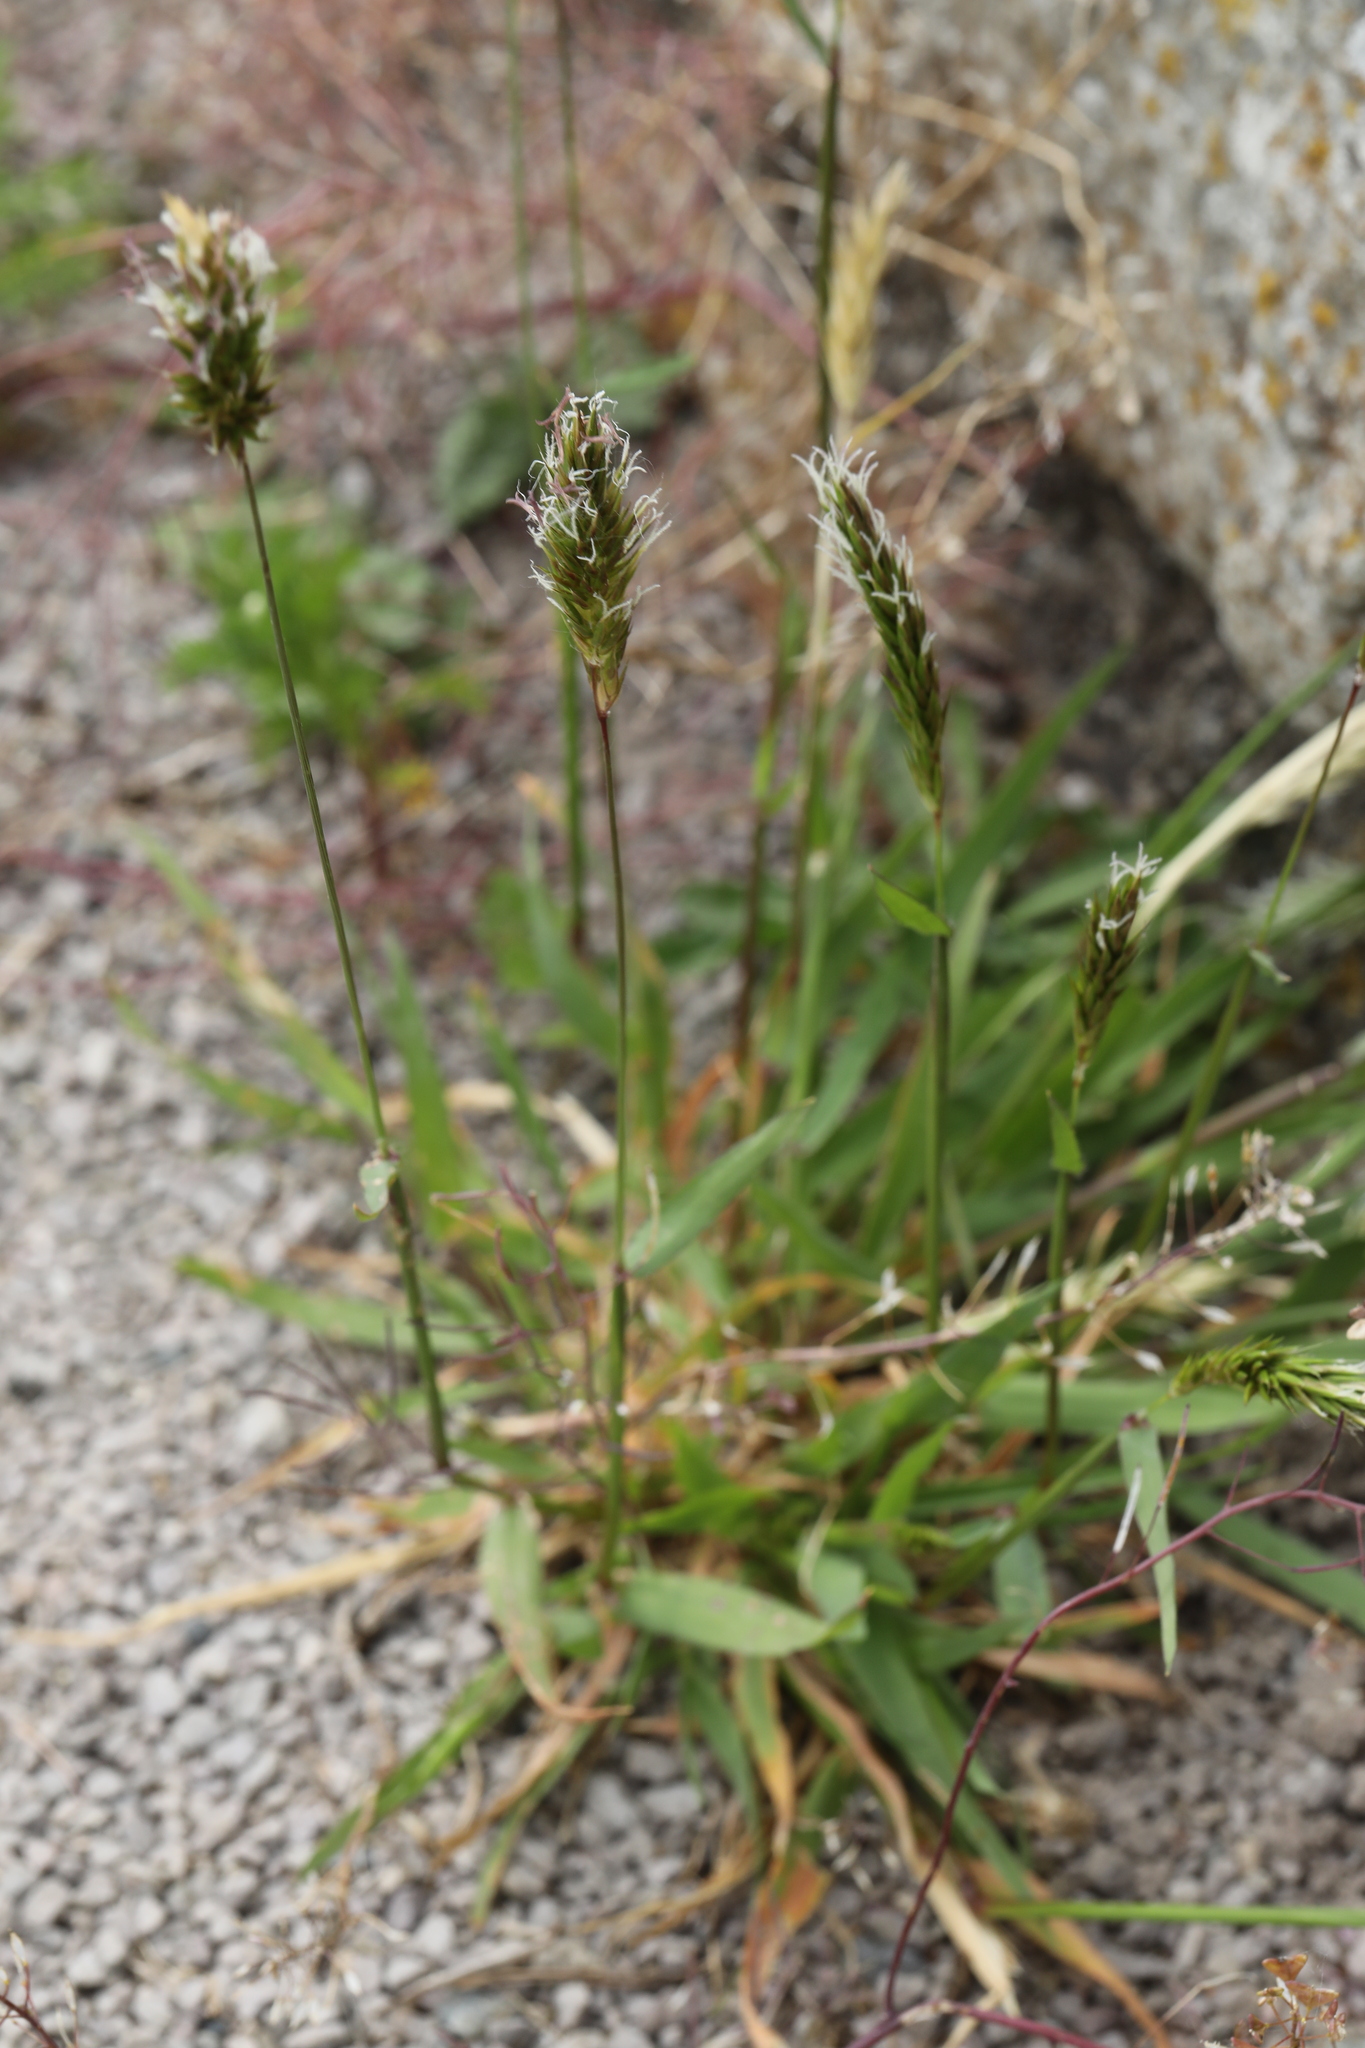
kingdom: Plantae
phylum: Tracheophyta
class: Liliopsida
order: Poales
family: Poaceae
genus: Anthoxanthum
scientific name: Anthoxanthum odoratum
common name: Sweet vernalgrass
